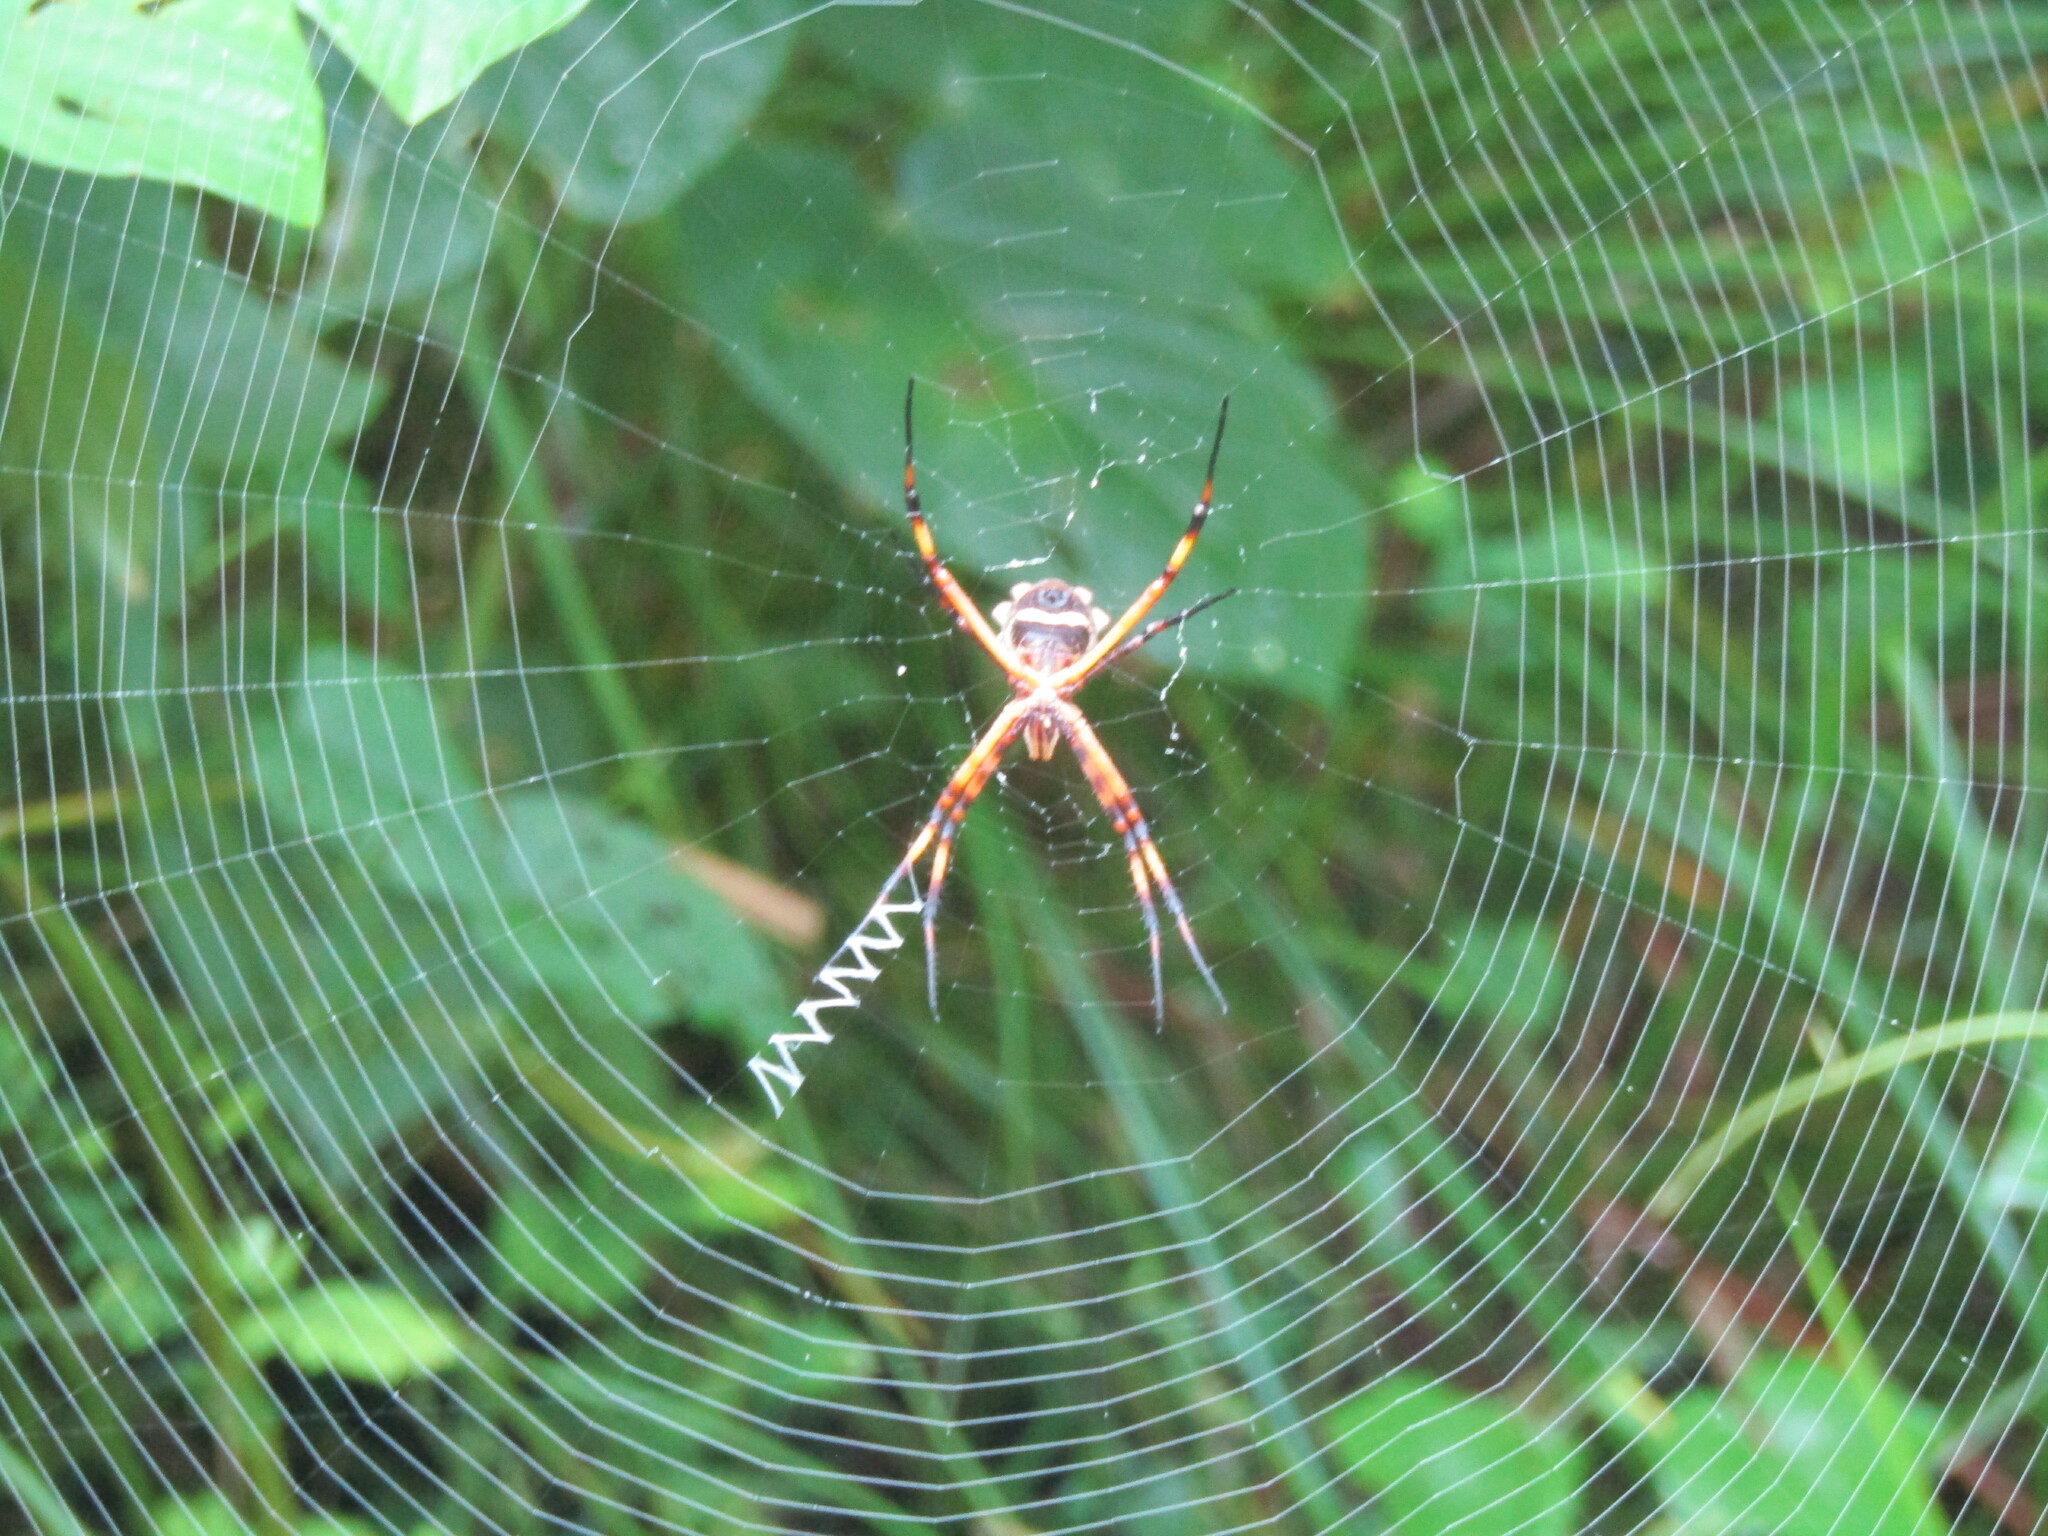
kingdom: Animalia
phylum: Arthropoda
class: Arachnida
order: Araneae
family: Araneidae
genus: Argiope
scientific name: Argiope argentata
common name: Orb weavers
